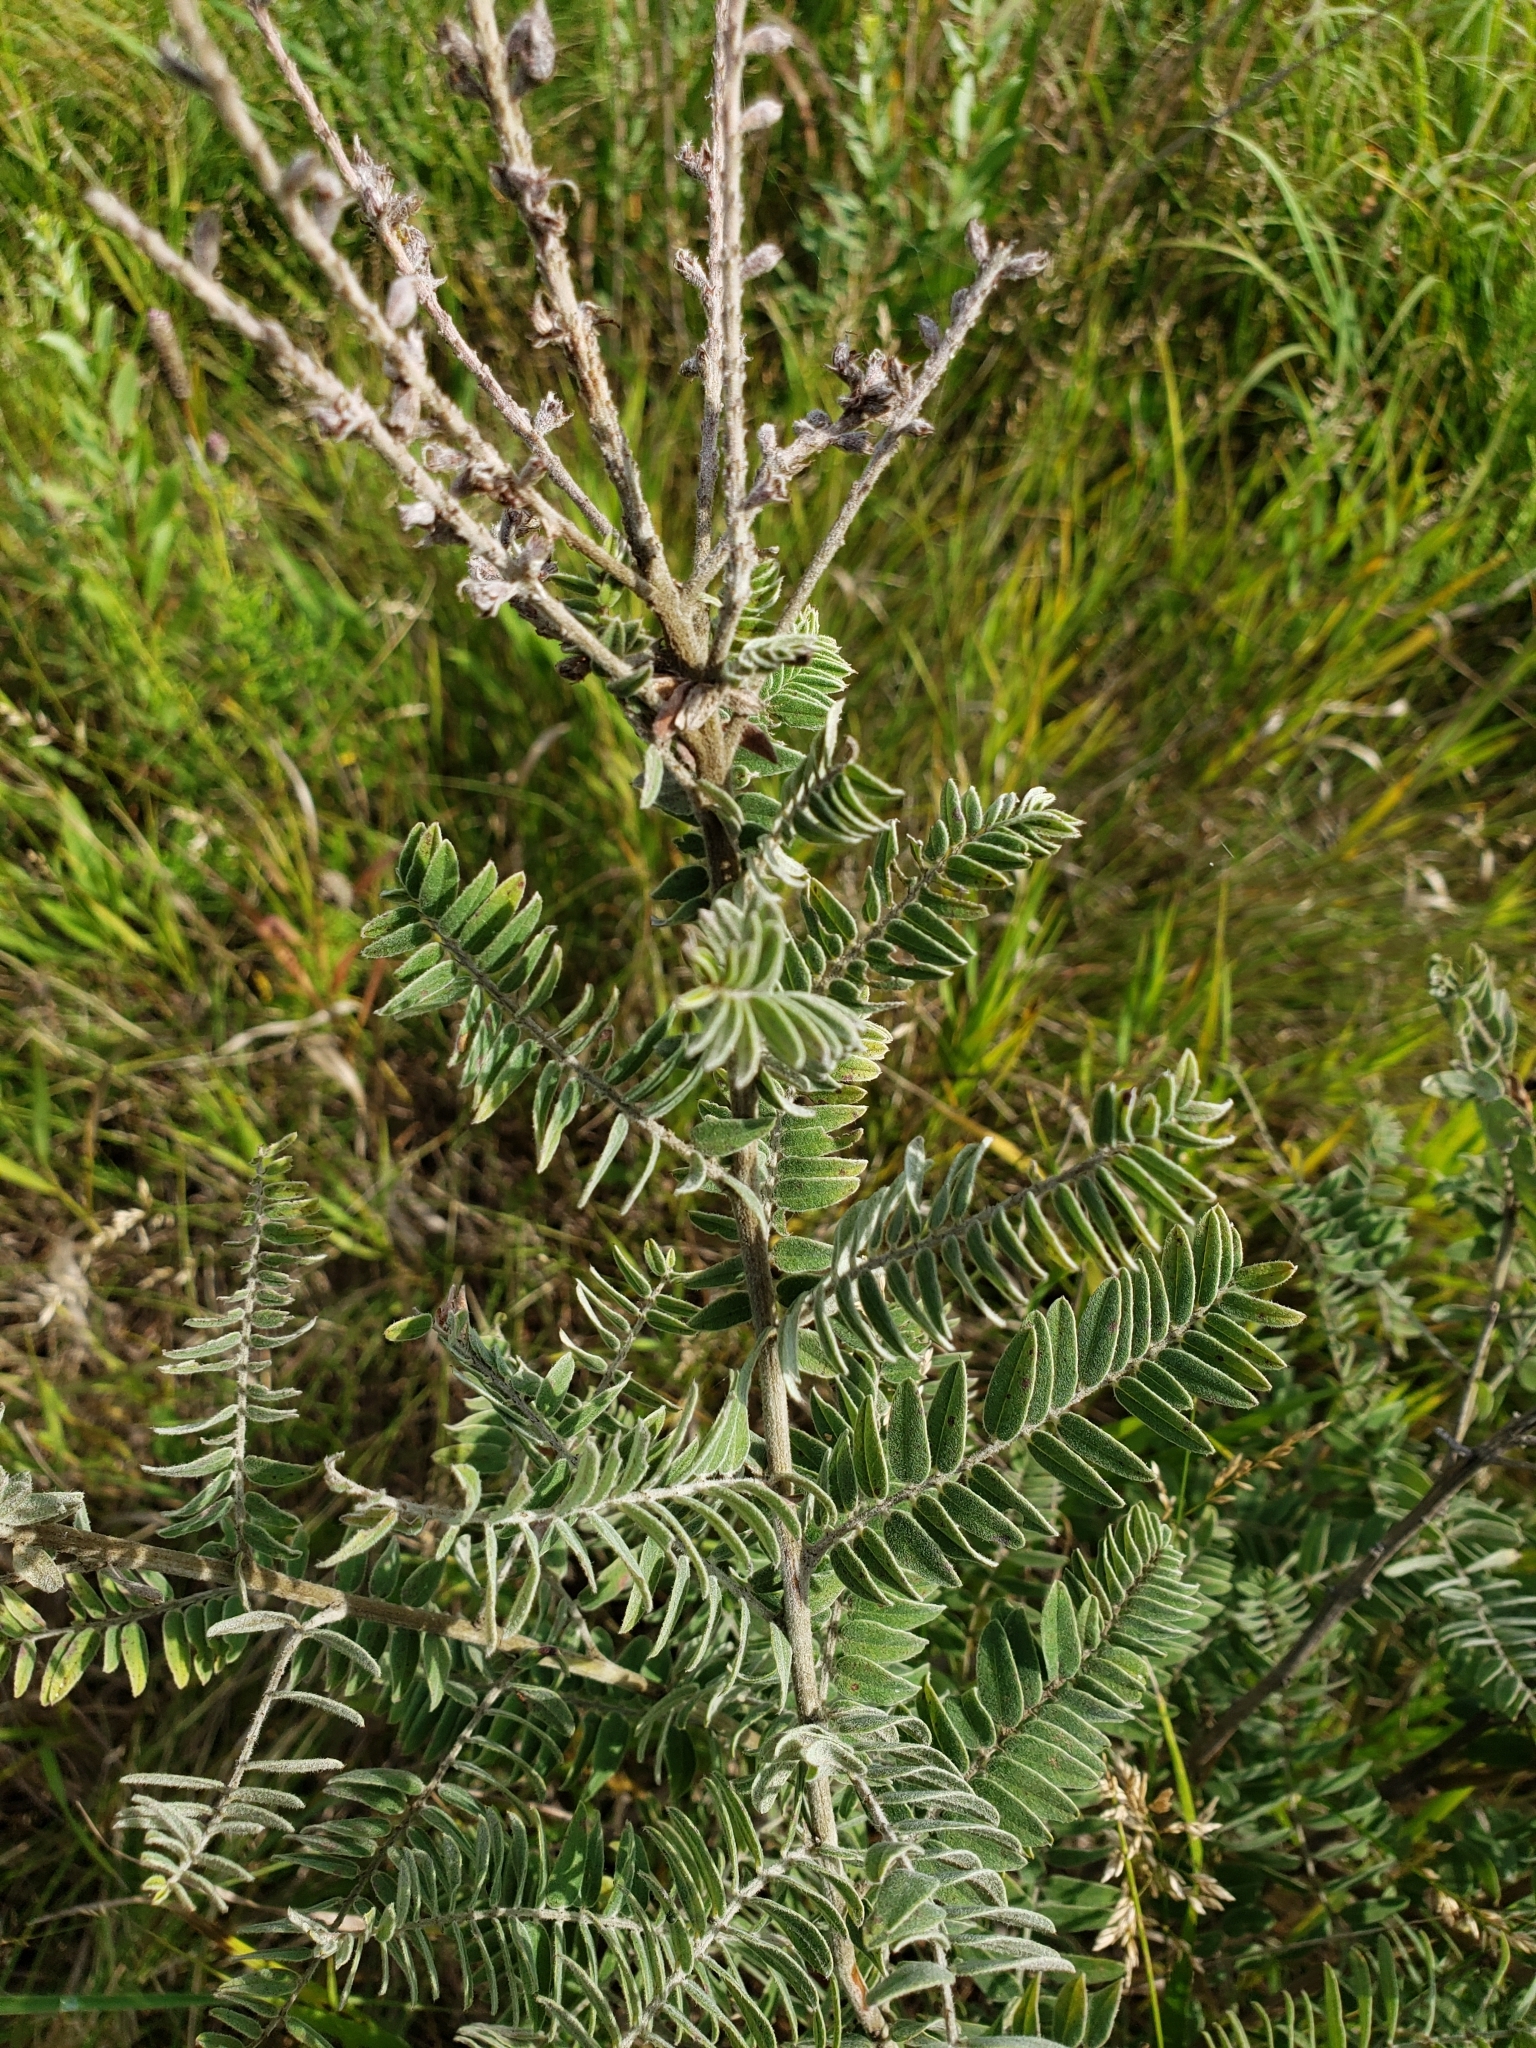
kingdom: Plantae
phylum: Tracheophyta
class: Magnoliopsida
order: Fabales
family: Fabaceae
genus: Amorpha
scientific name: Amorpha canescens
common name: Leadplant
